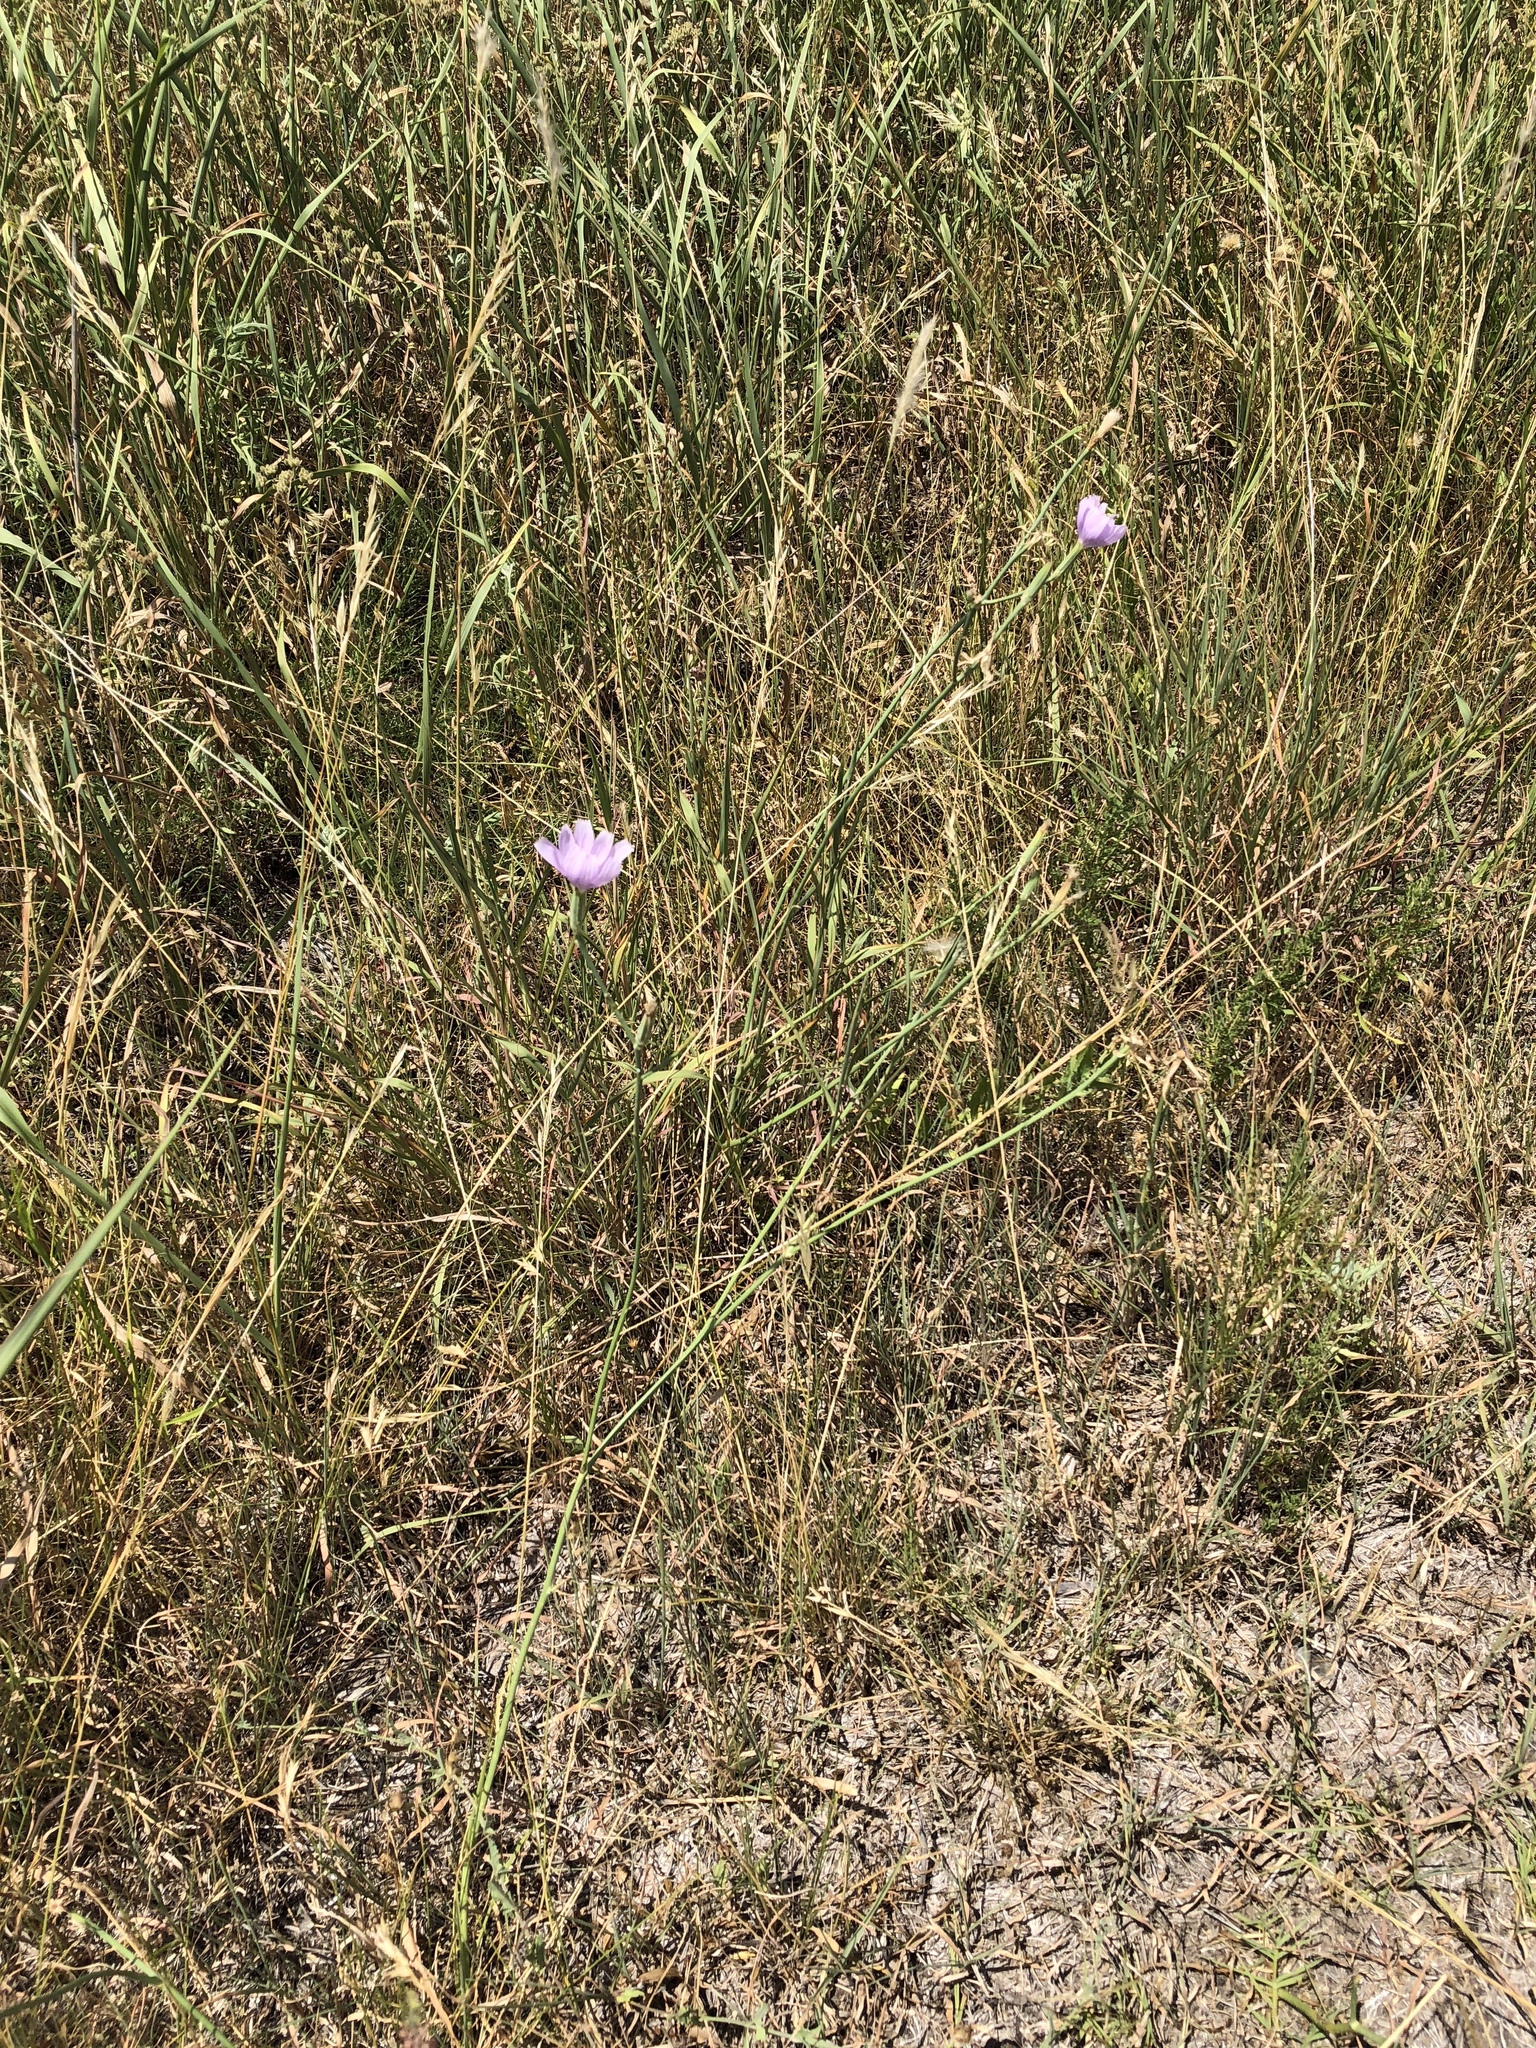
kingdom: Plantae
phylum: Tracheophyta
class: Magnoliopsida
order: Asterales
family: Asteraceae
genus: Lygodesmia
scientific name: Lygodesmia texana
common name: Texas skeleton-plant
